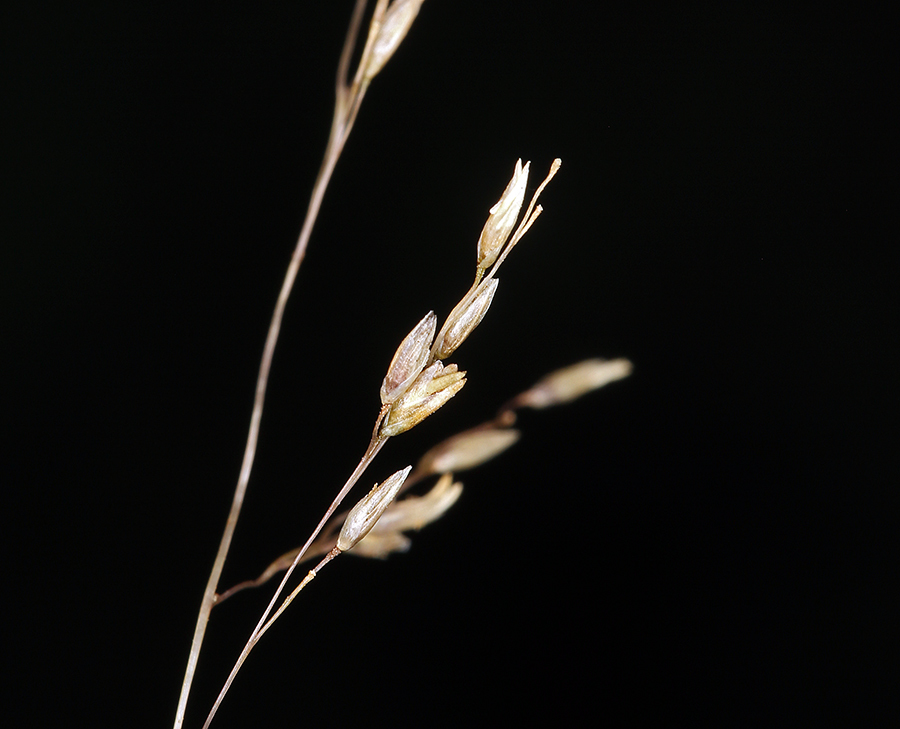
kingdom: Plantae
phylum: Tracheophyta
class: Liliopsida
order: Poales
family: Poaceae
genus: Sporobolus
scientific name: Sporobolus airoides
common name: Alkali sacaton
